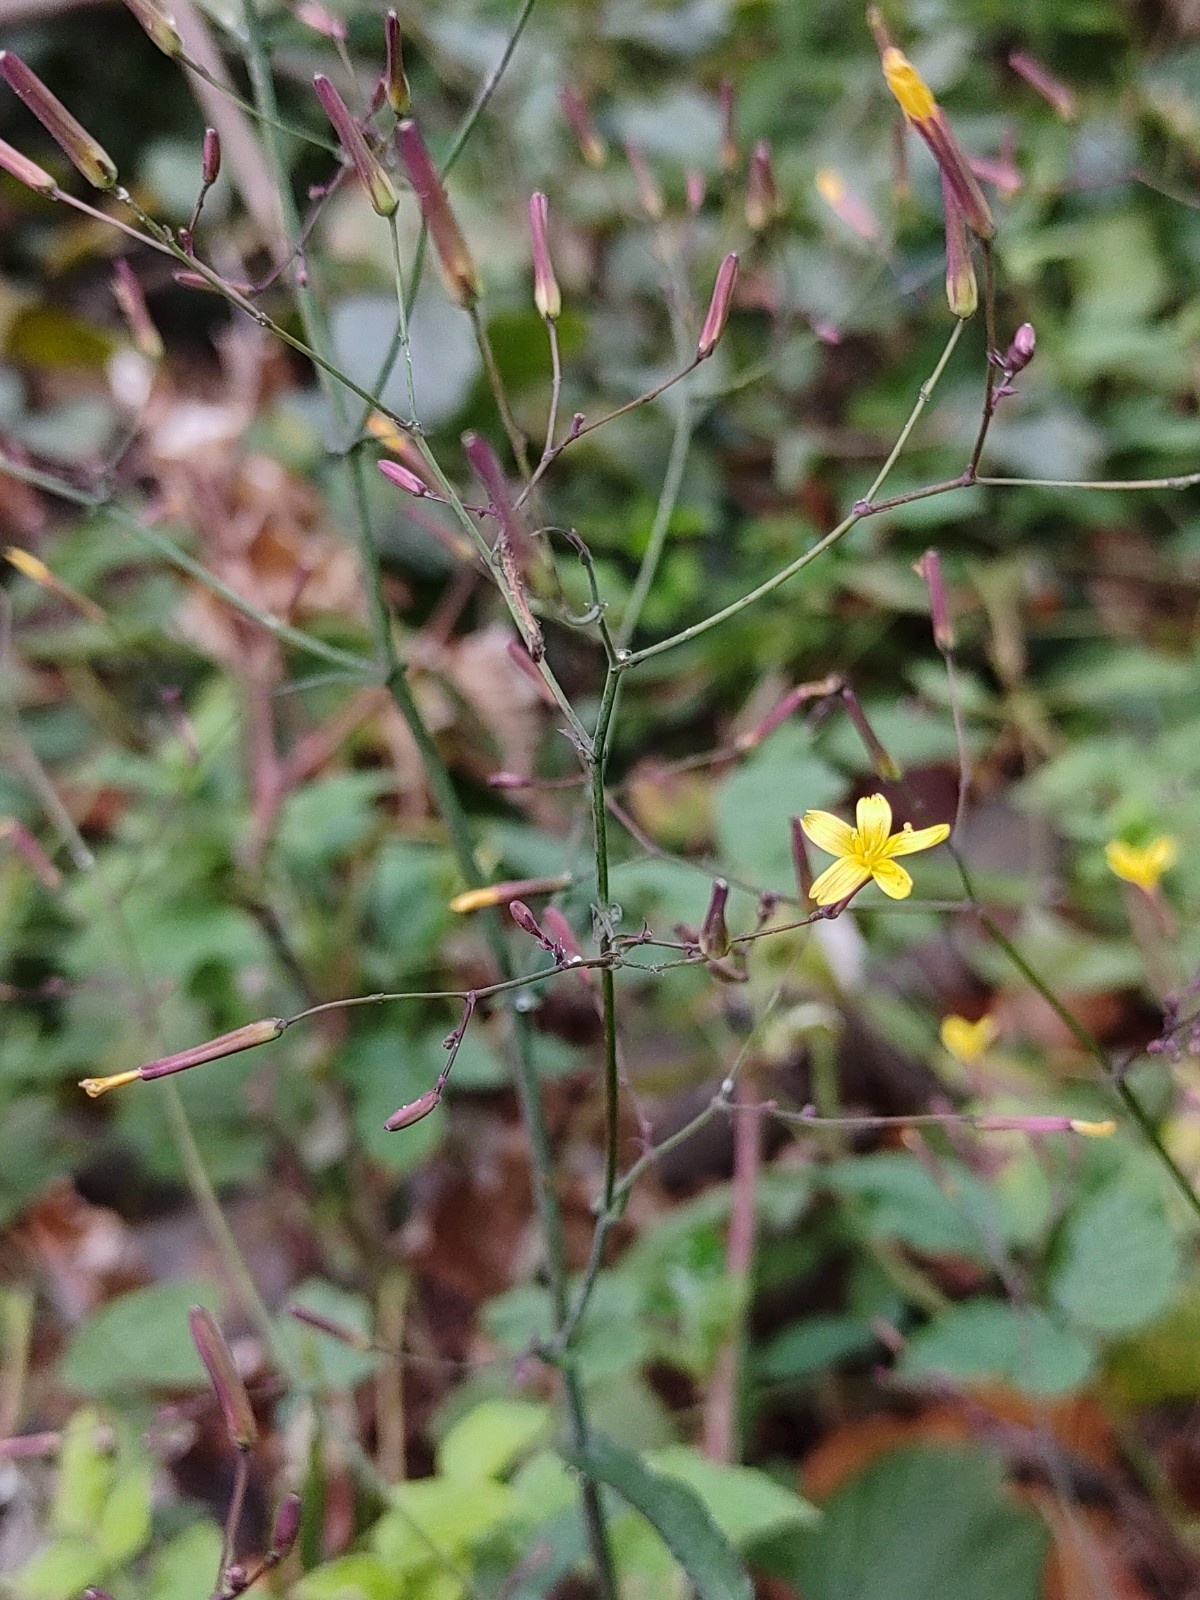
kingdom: Plantae
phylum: Tracheophyta
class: Magnoliopsida
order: Asterales
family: Asteraceae
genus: Mycelis
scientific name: Mycelis muralis
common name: Wall lettuce
